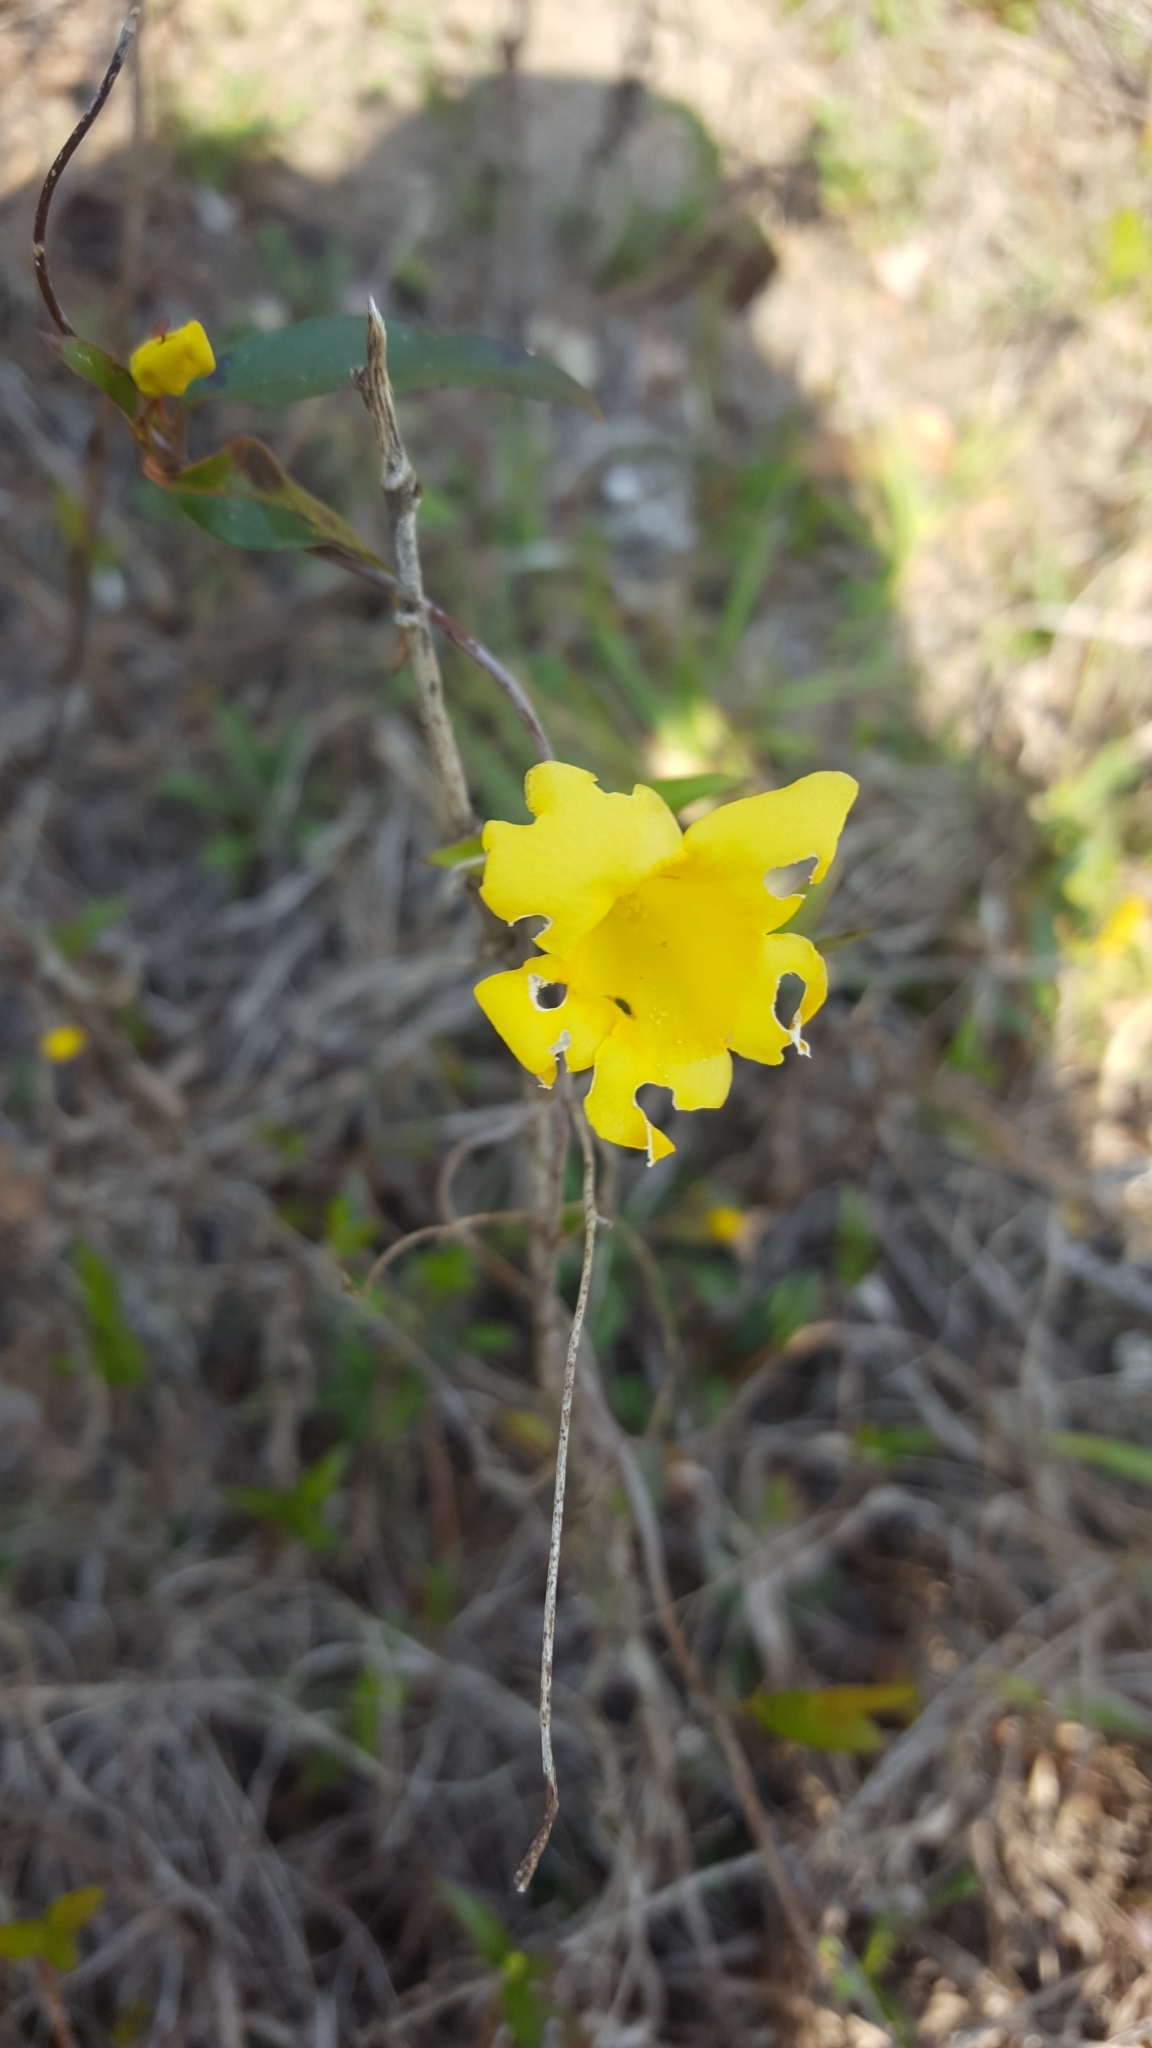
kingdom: Plantae
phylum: Tracheophyta
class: Magnoliopsida
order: Gentianales
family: Gelsemiaceae
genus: Gelsemium
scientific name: Gelsemium sempervirens
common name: Carolina-jasmine
